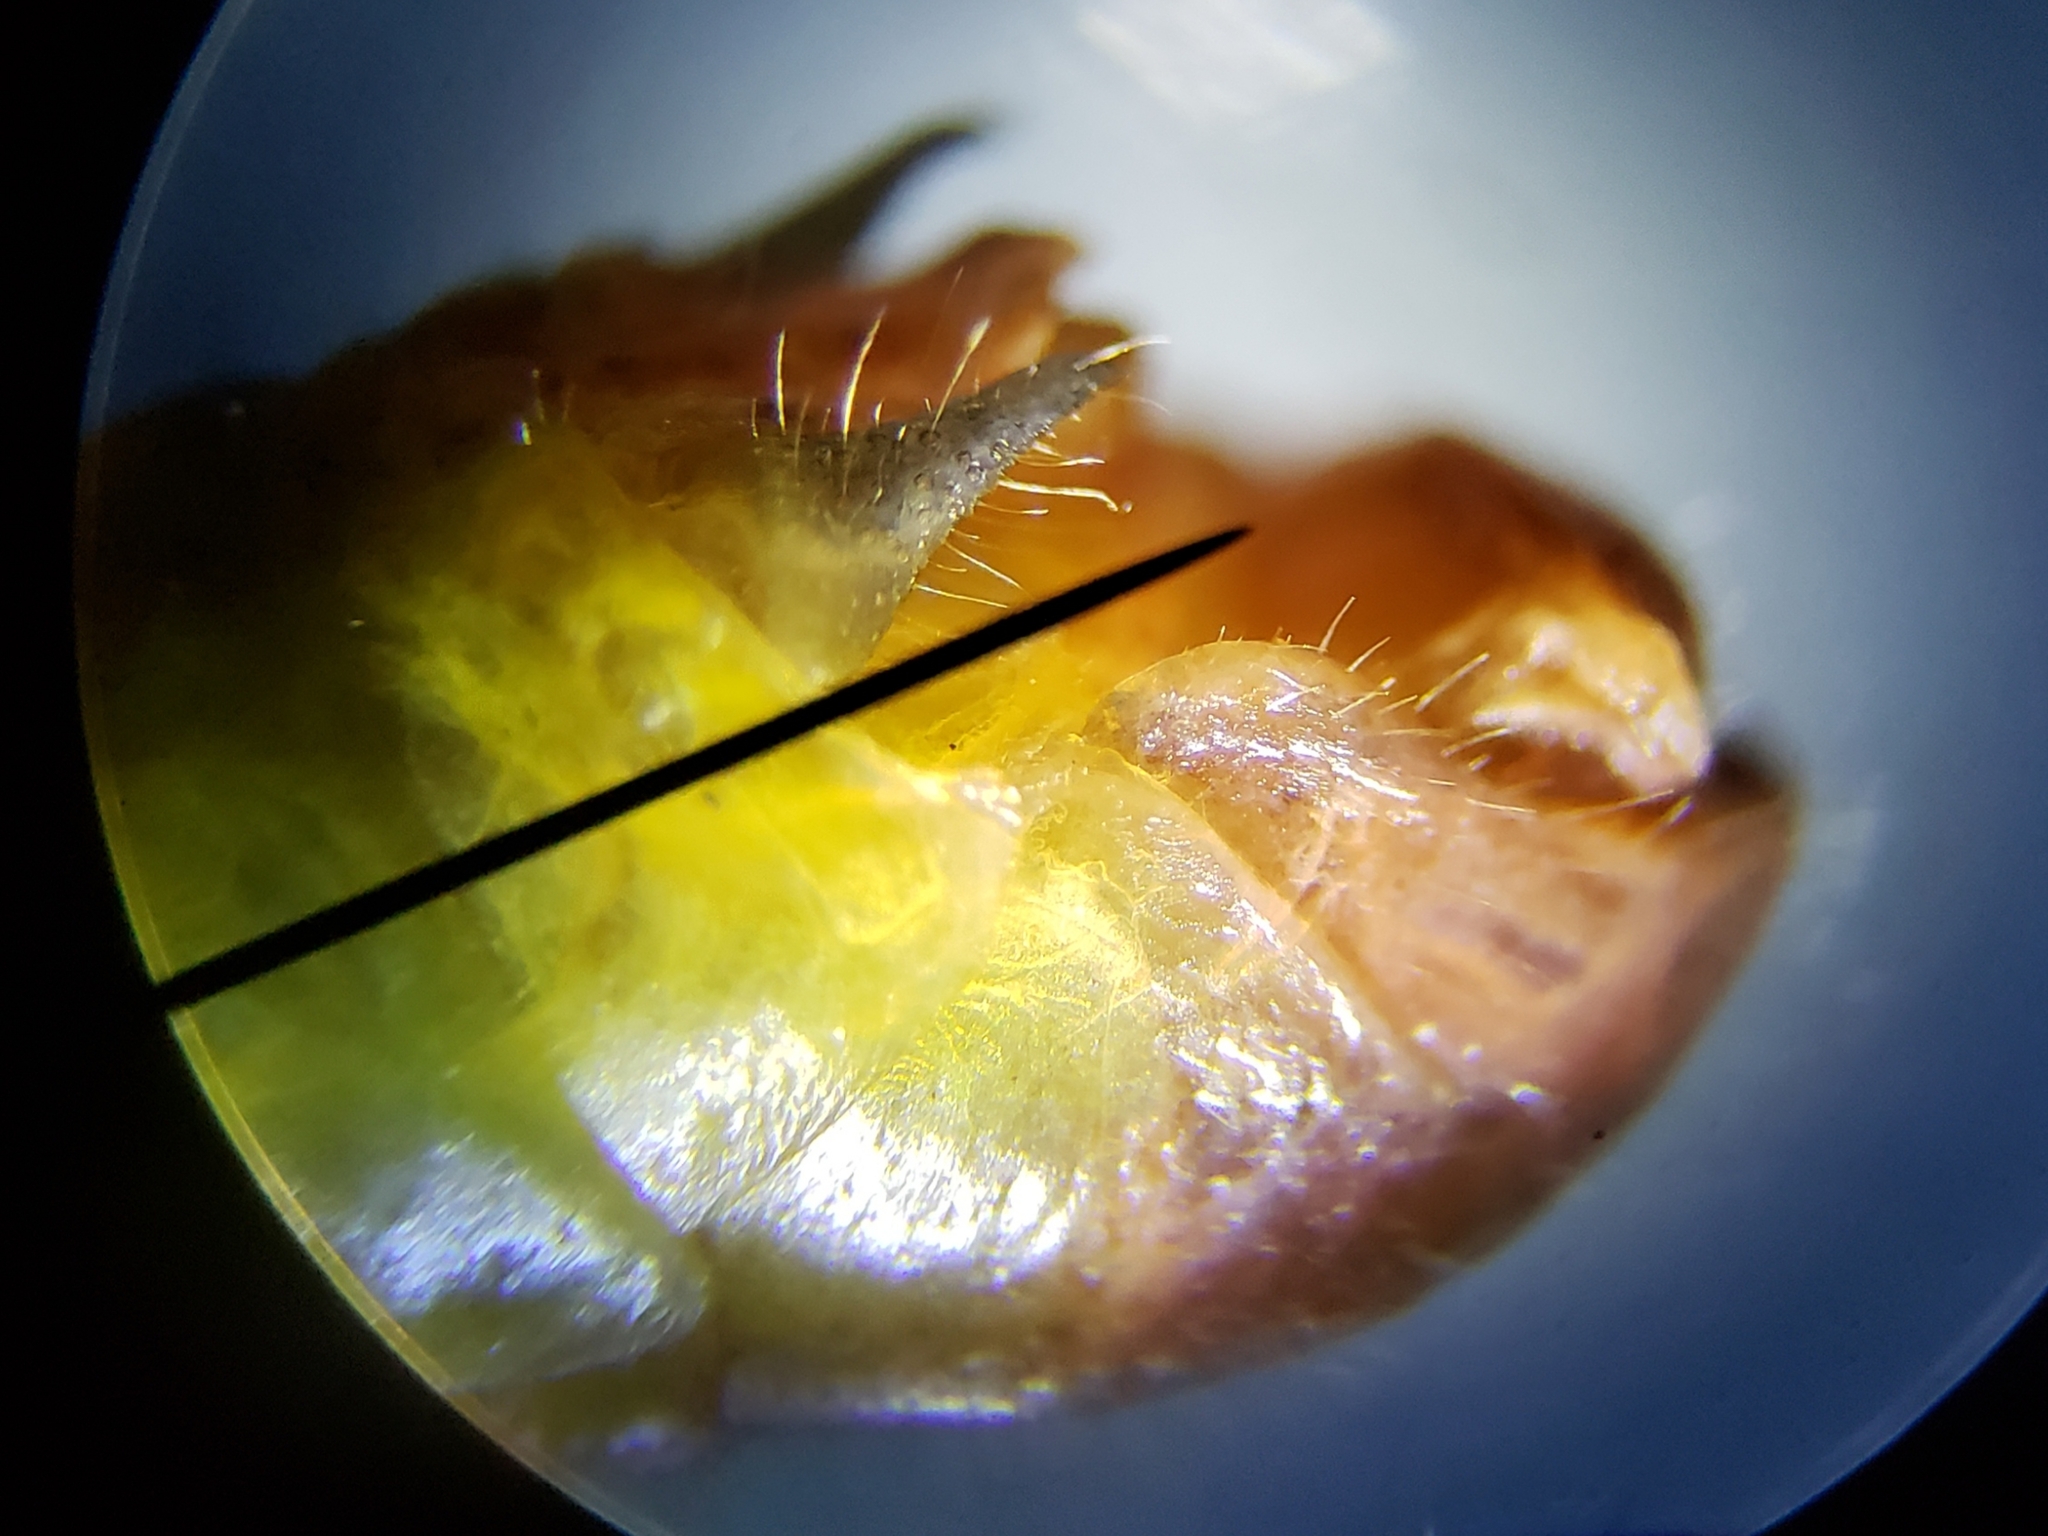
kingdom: Animalia
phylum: Arthropoda
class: Insecta
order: Orthoptera
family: Acrididae
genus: Floritettix
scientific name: Floritettix aptera
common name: Wingless florida locust
